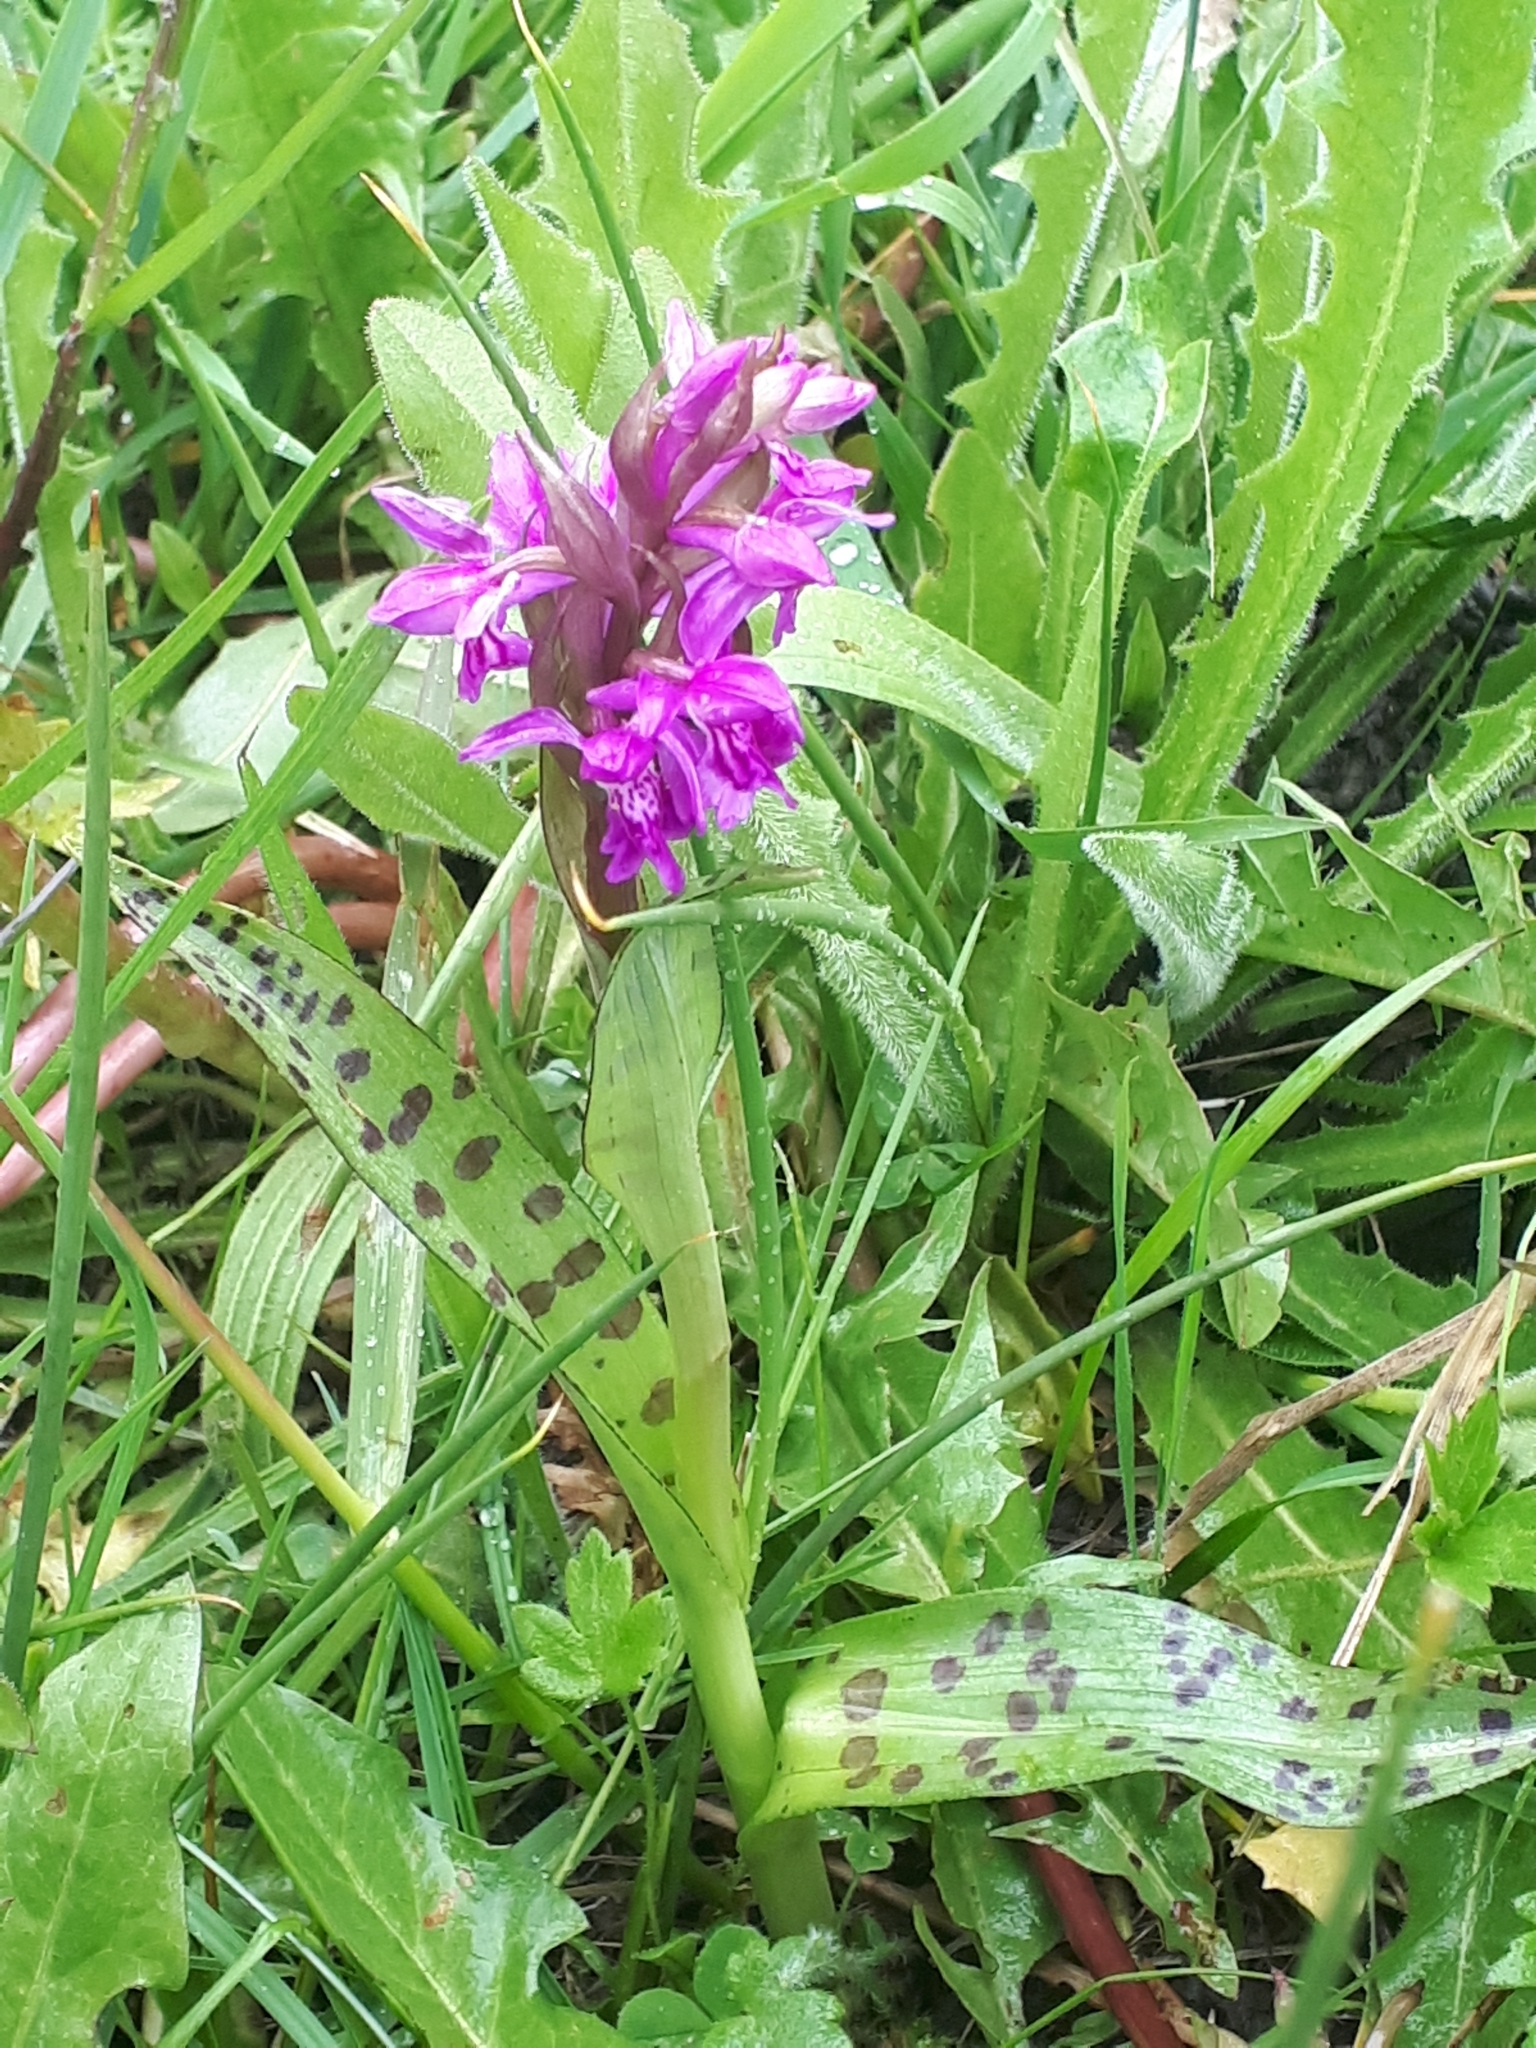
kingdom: Plantae
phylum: Tracheophyta
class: Liliopsida
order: Asparagales
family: Orchidaceae
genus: Dactylorhiza
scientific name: Dactylorhiza majalis
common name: Marsh orchid
